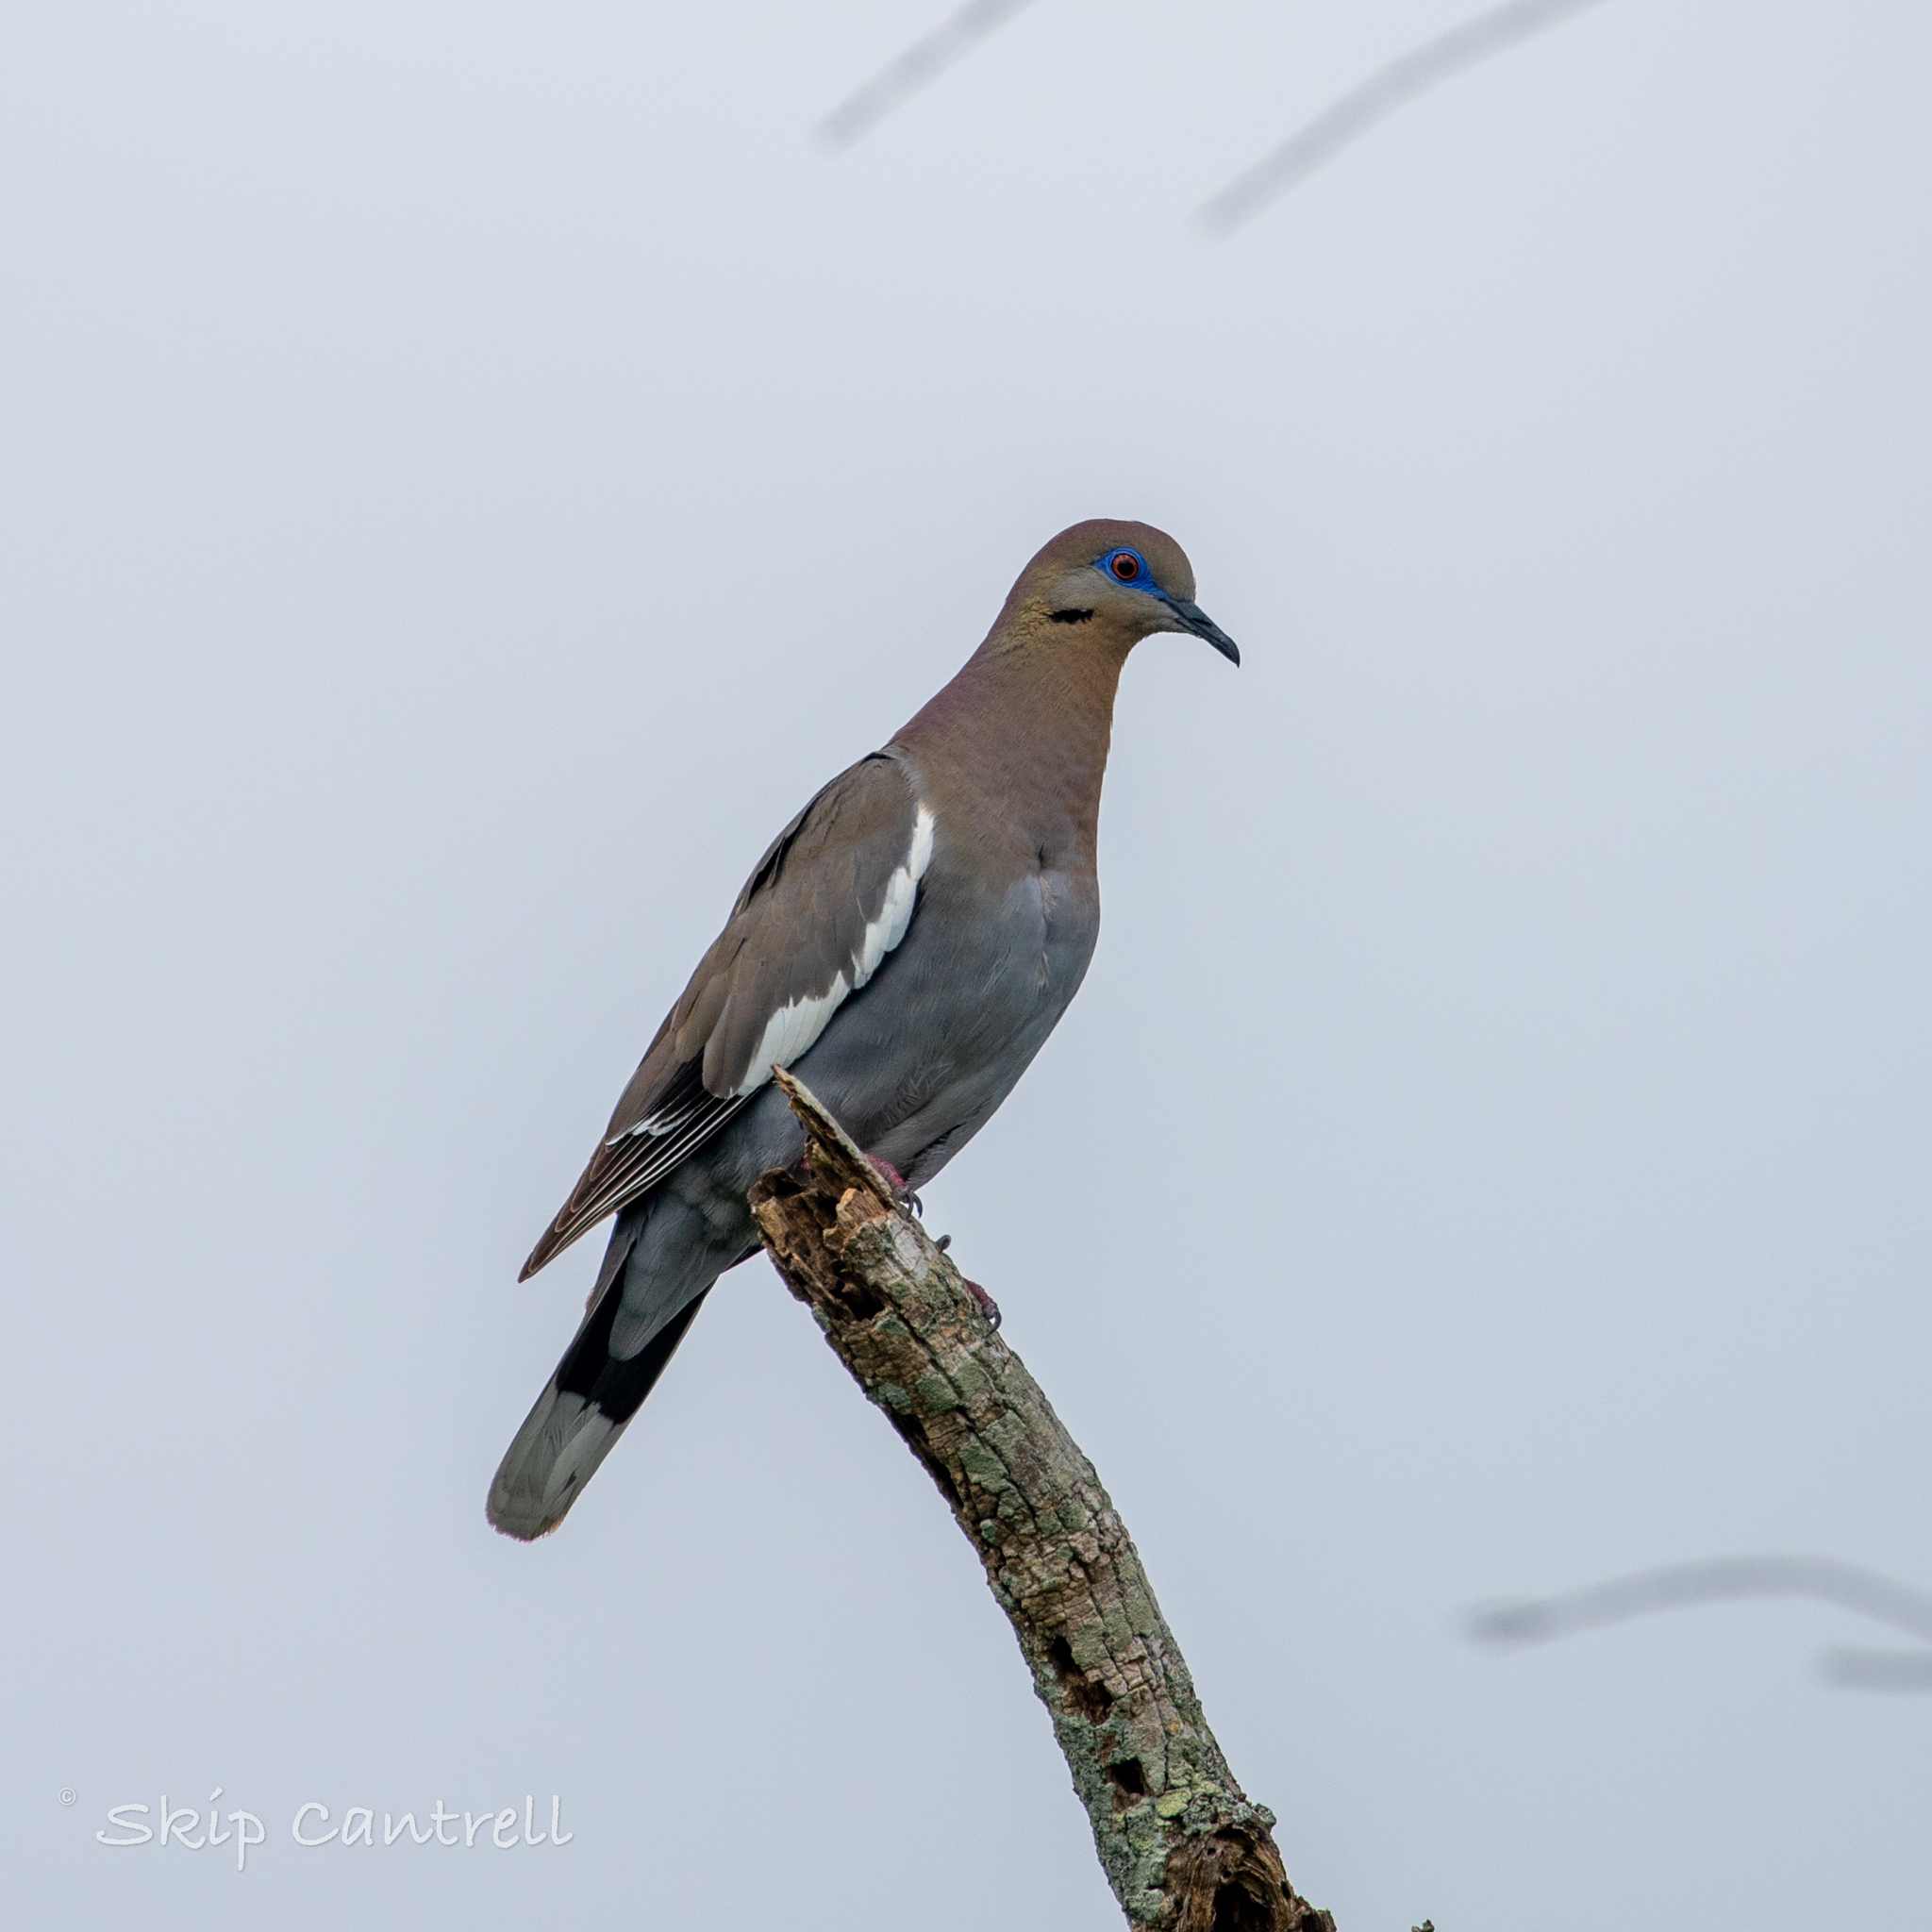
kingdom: Animalia
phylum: Chordata
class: Aves
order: Columbiformes
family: Columbidae
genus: Zenaida
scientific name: Zenaida asiatica
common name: White-winged dove
